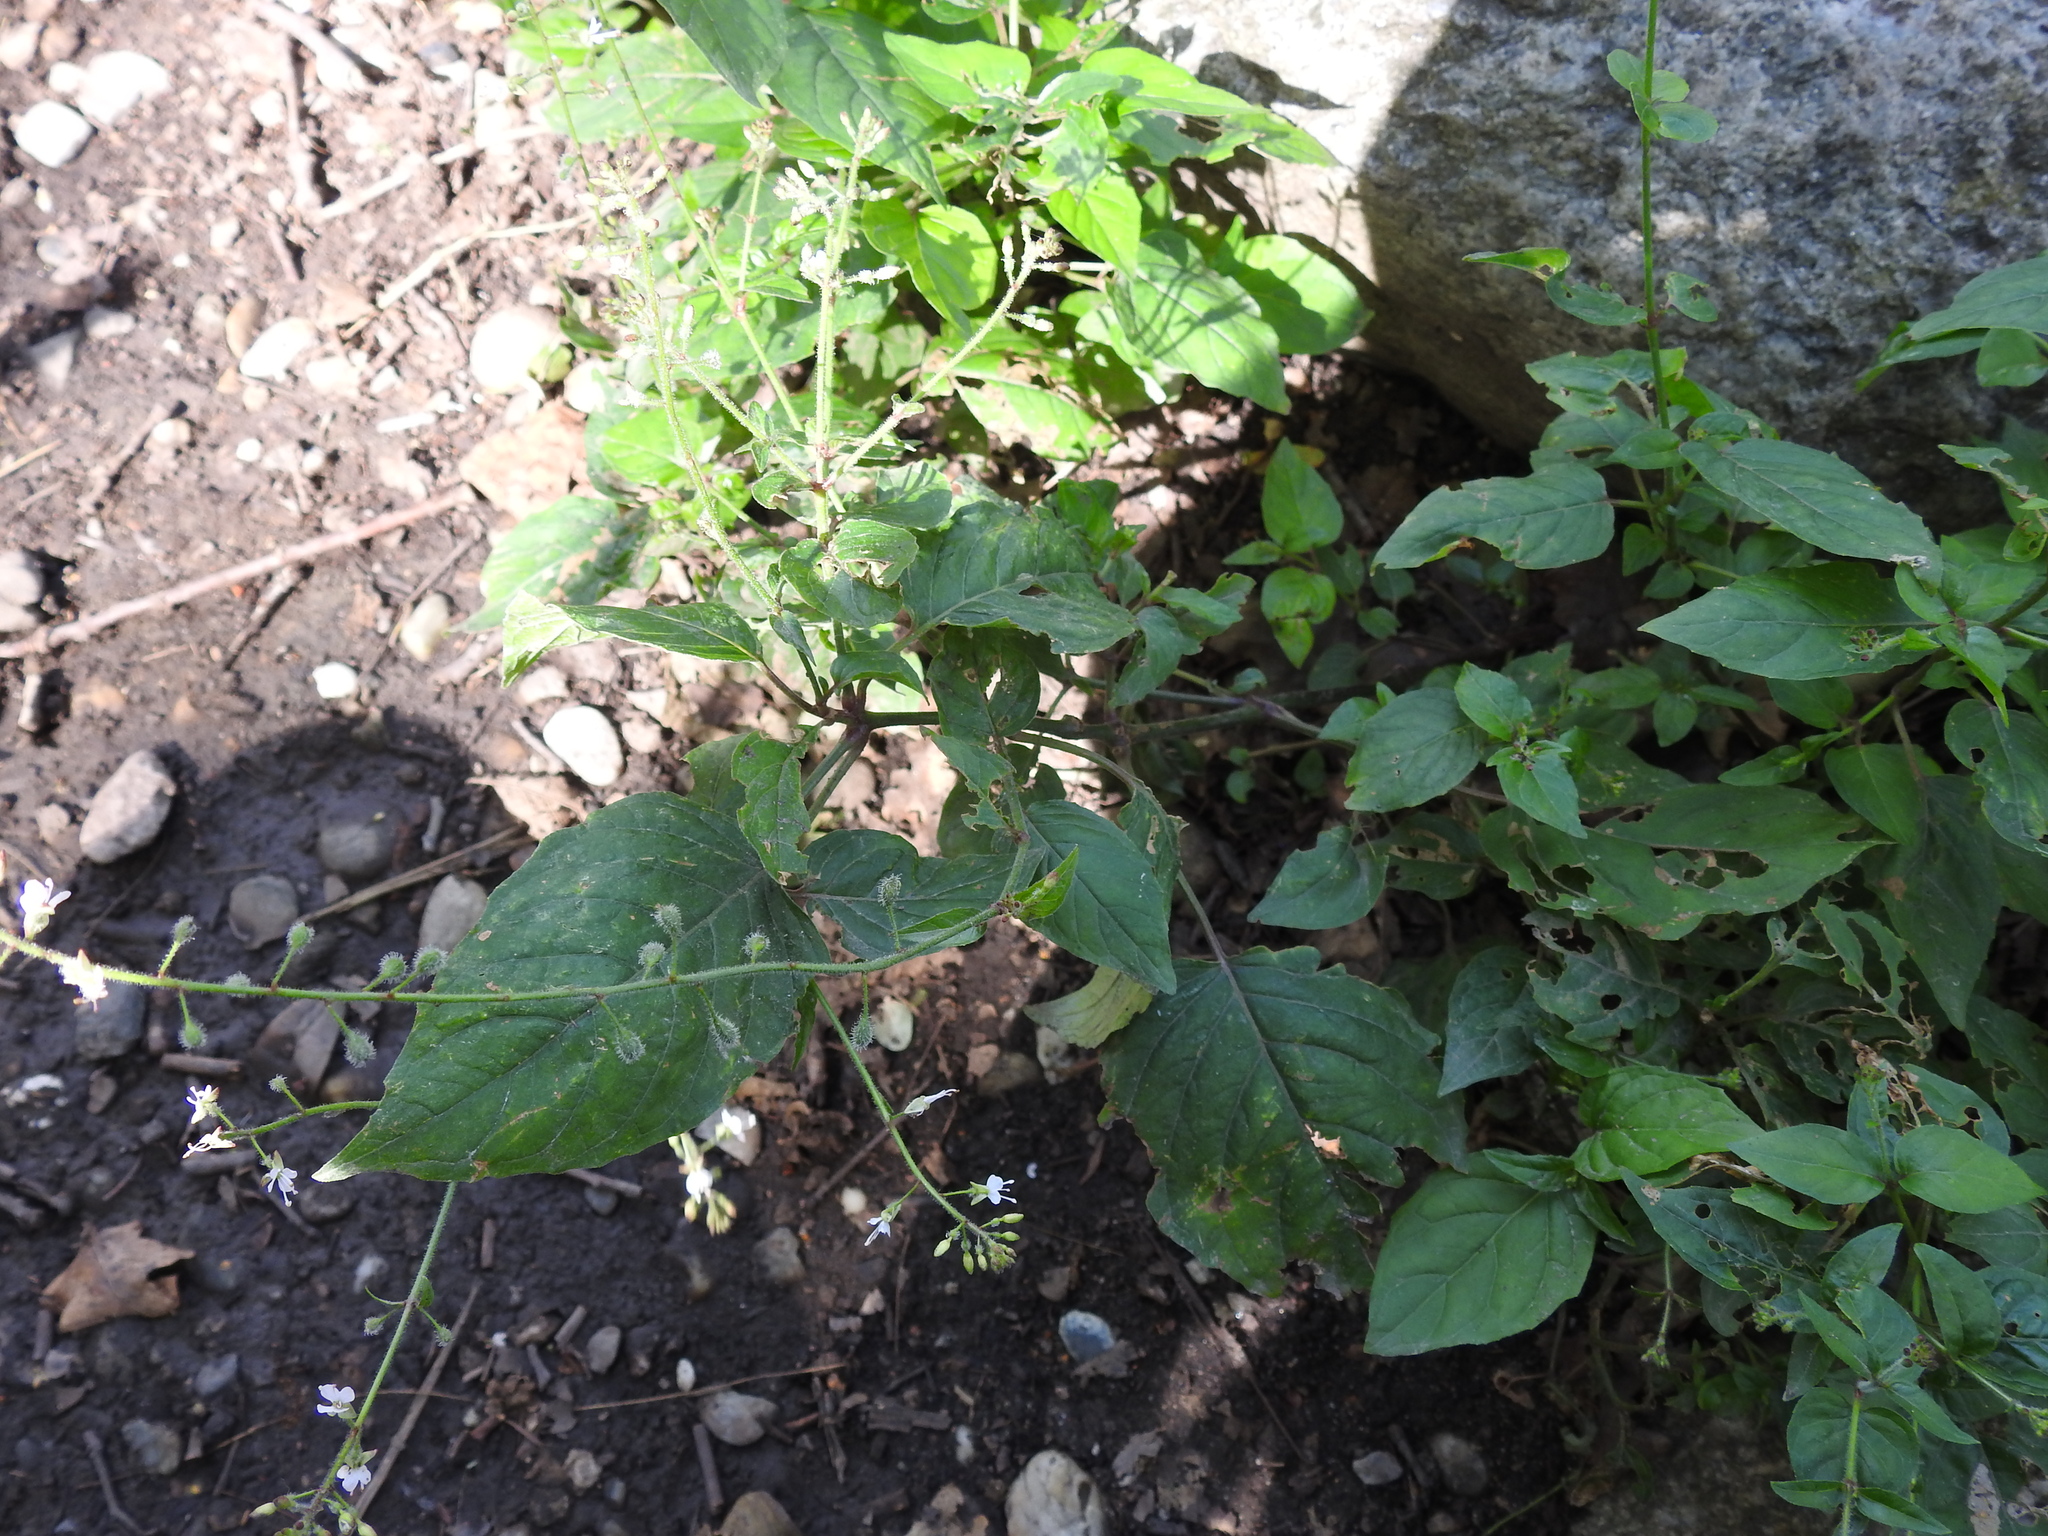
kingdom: Plantae
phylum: Tracheophyta
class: Magnoliopsida
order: Myrtales
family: Onagraceae
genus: Circaea
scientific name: Circaea lutetiana
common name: Enchanter's-nightshade
